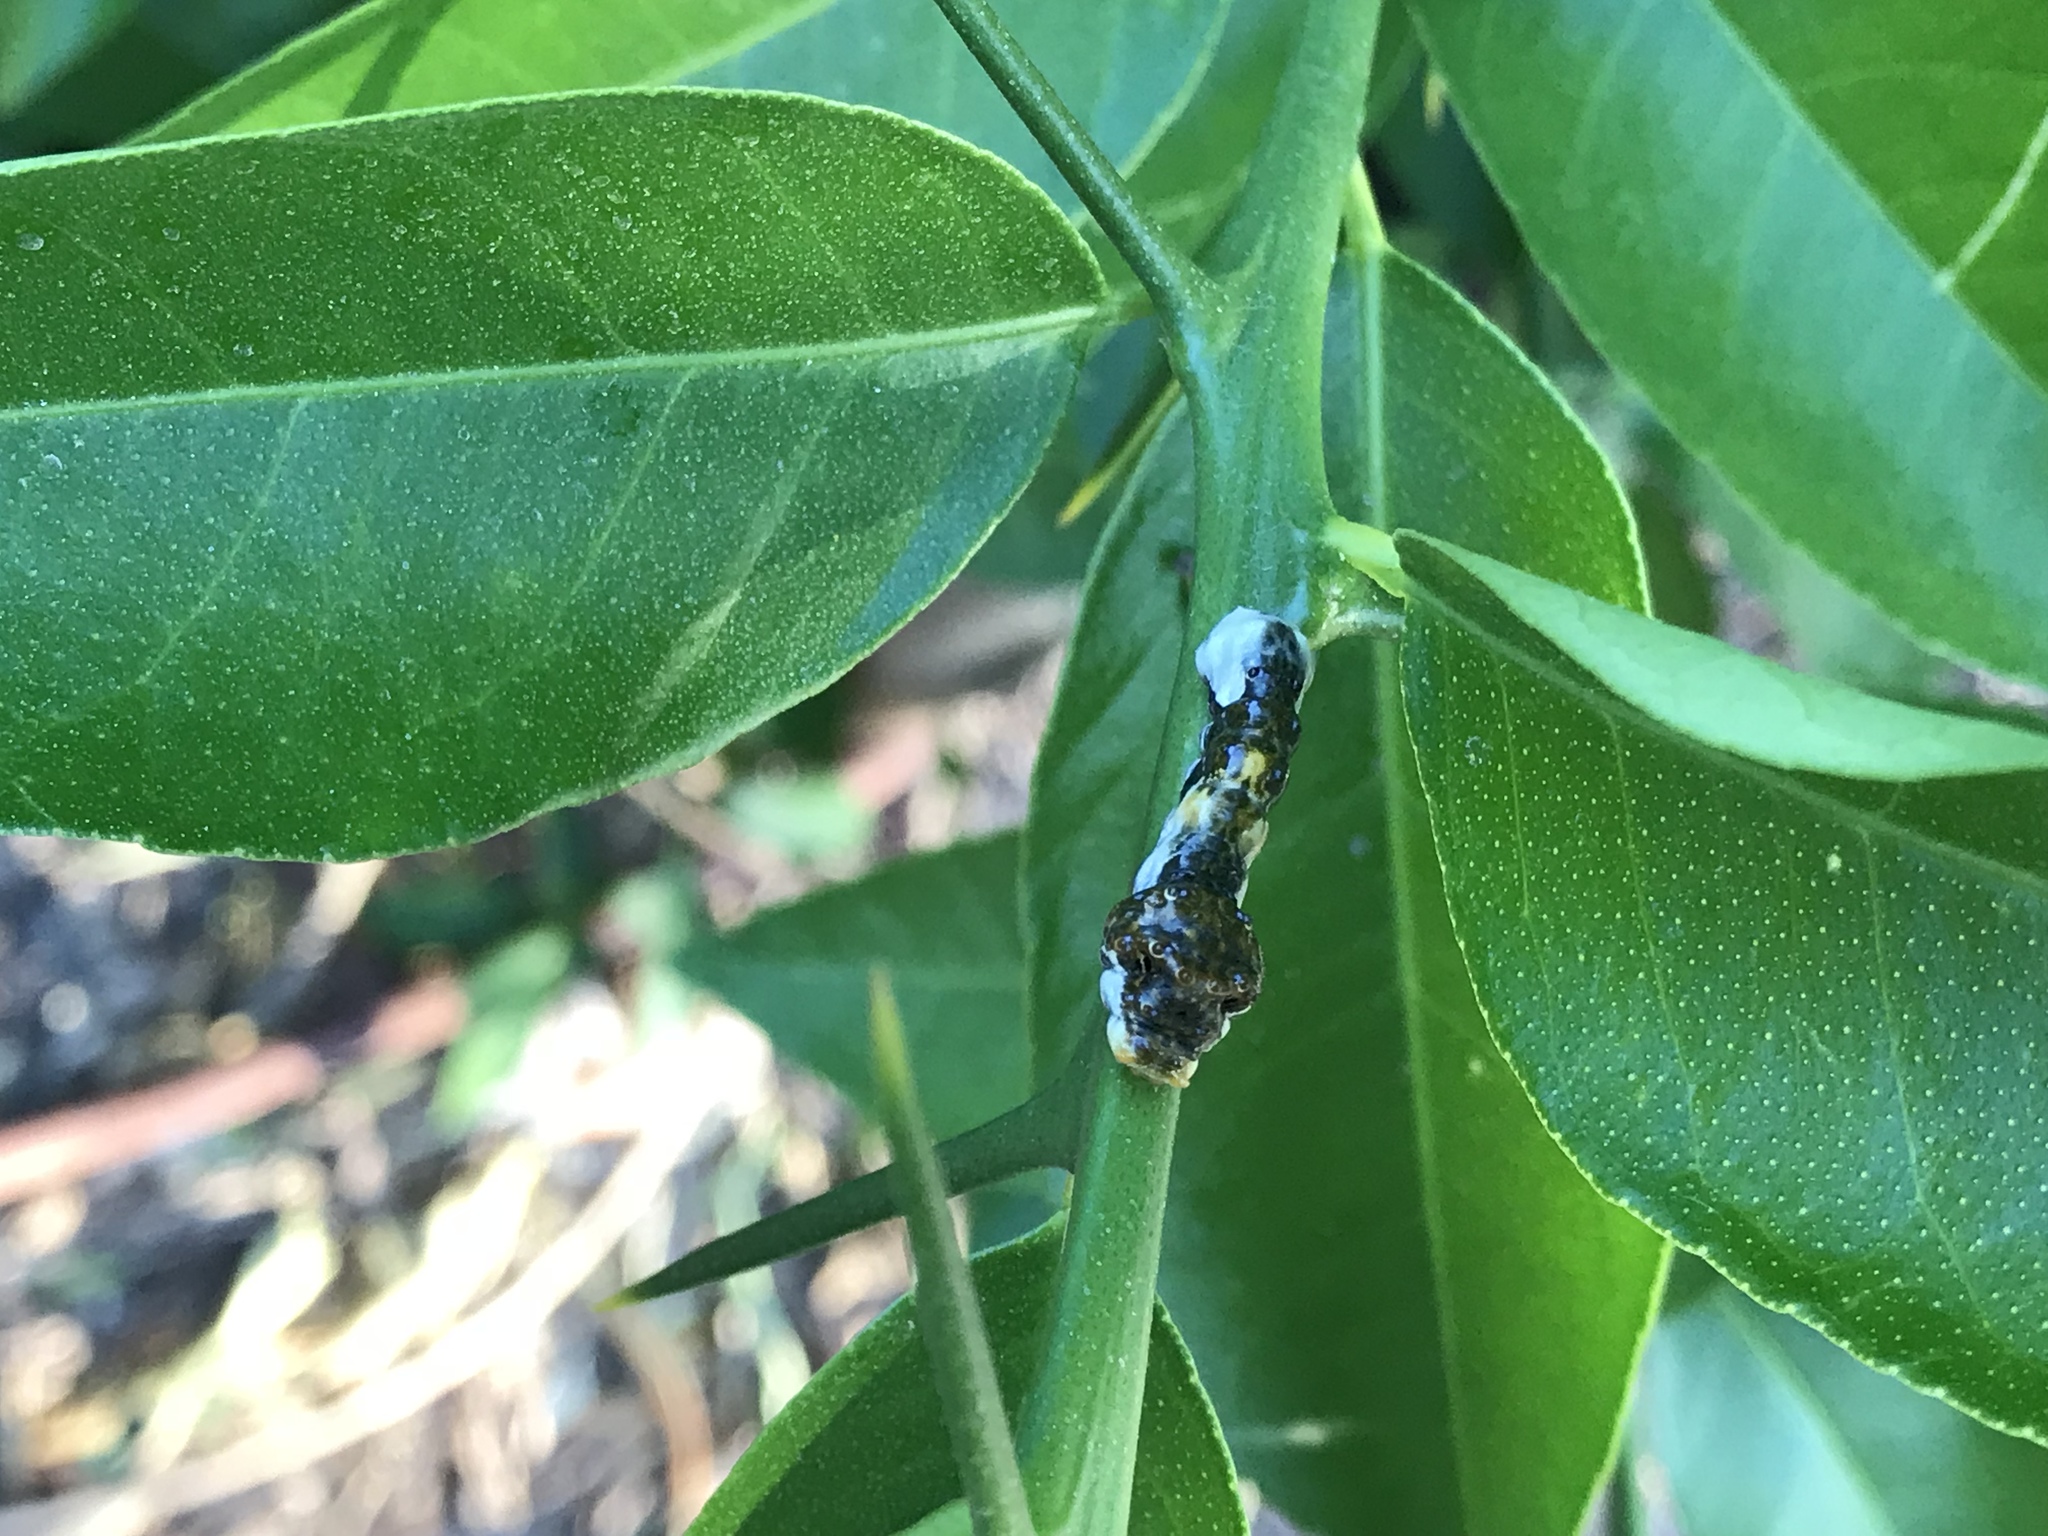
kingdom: Animalia
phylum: Arthropoda
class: Insecta
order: Lepidoptera
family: Papilionidae
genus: Papilio
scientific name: Papilio rumiko
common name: Western giant swallowtail
